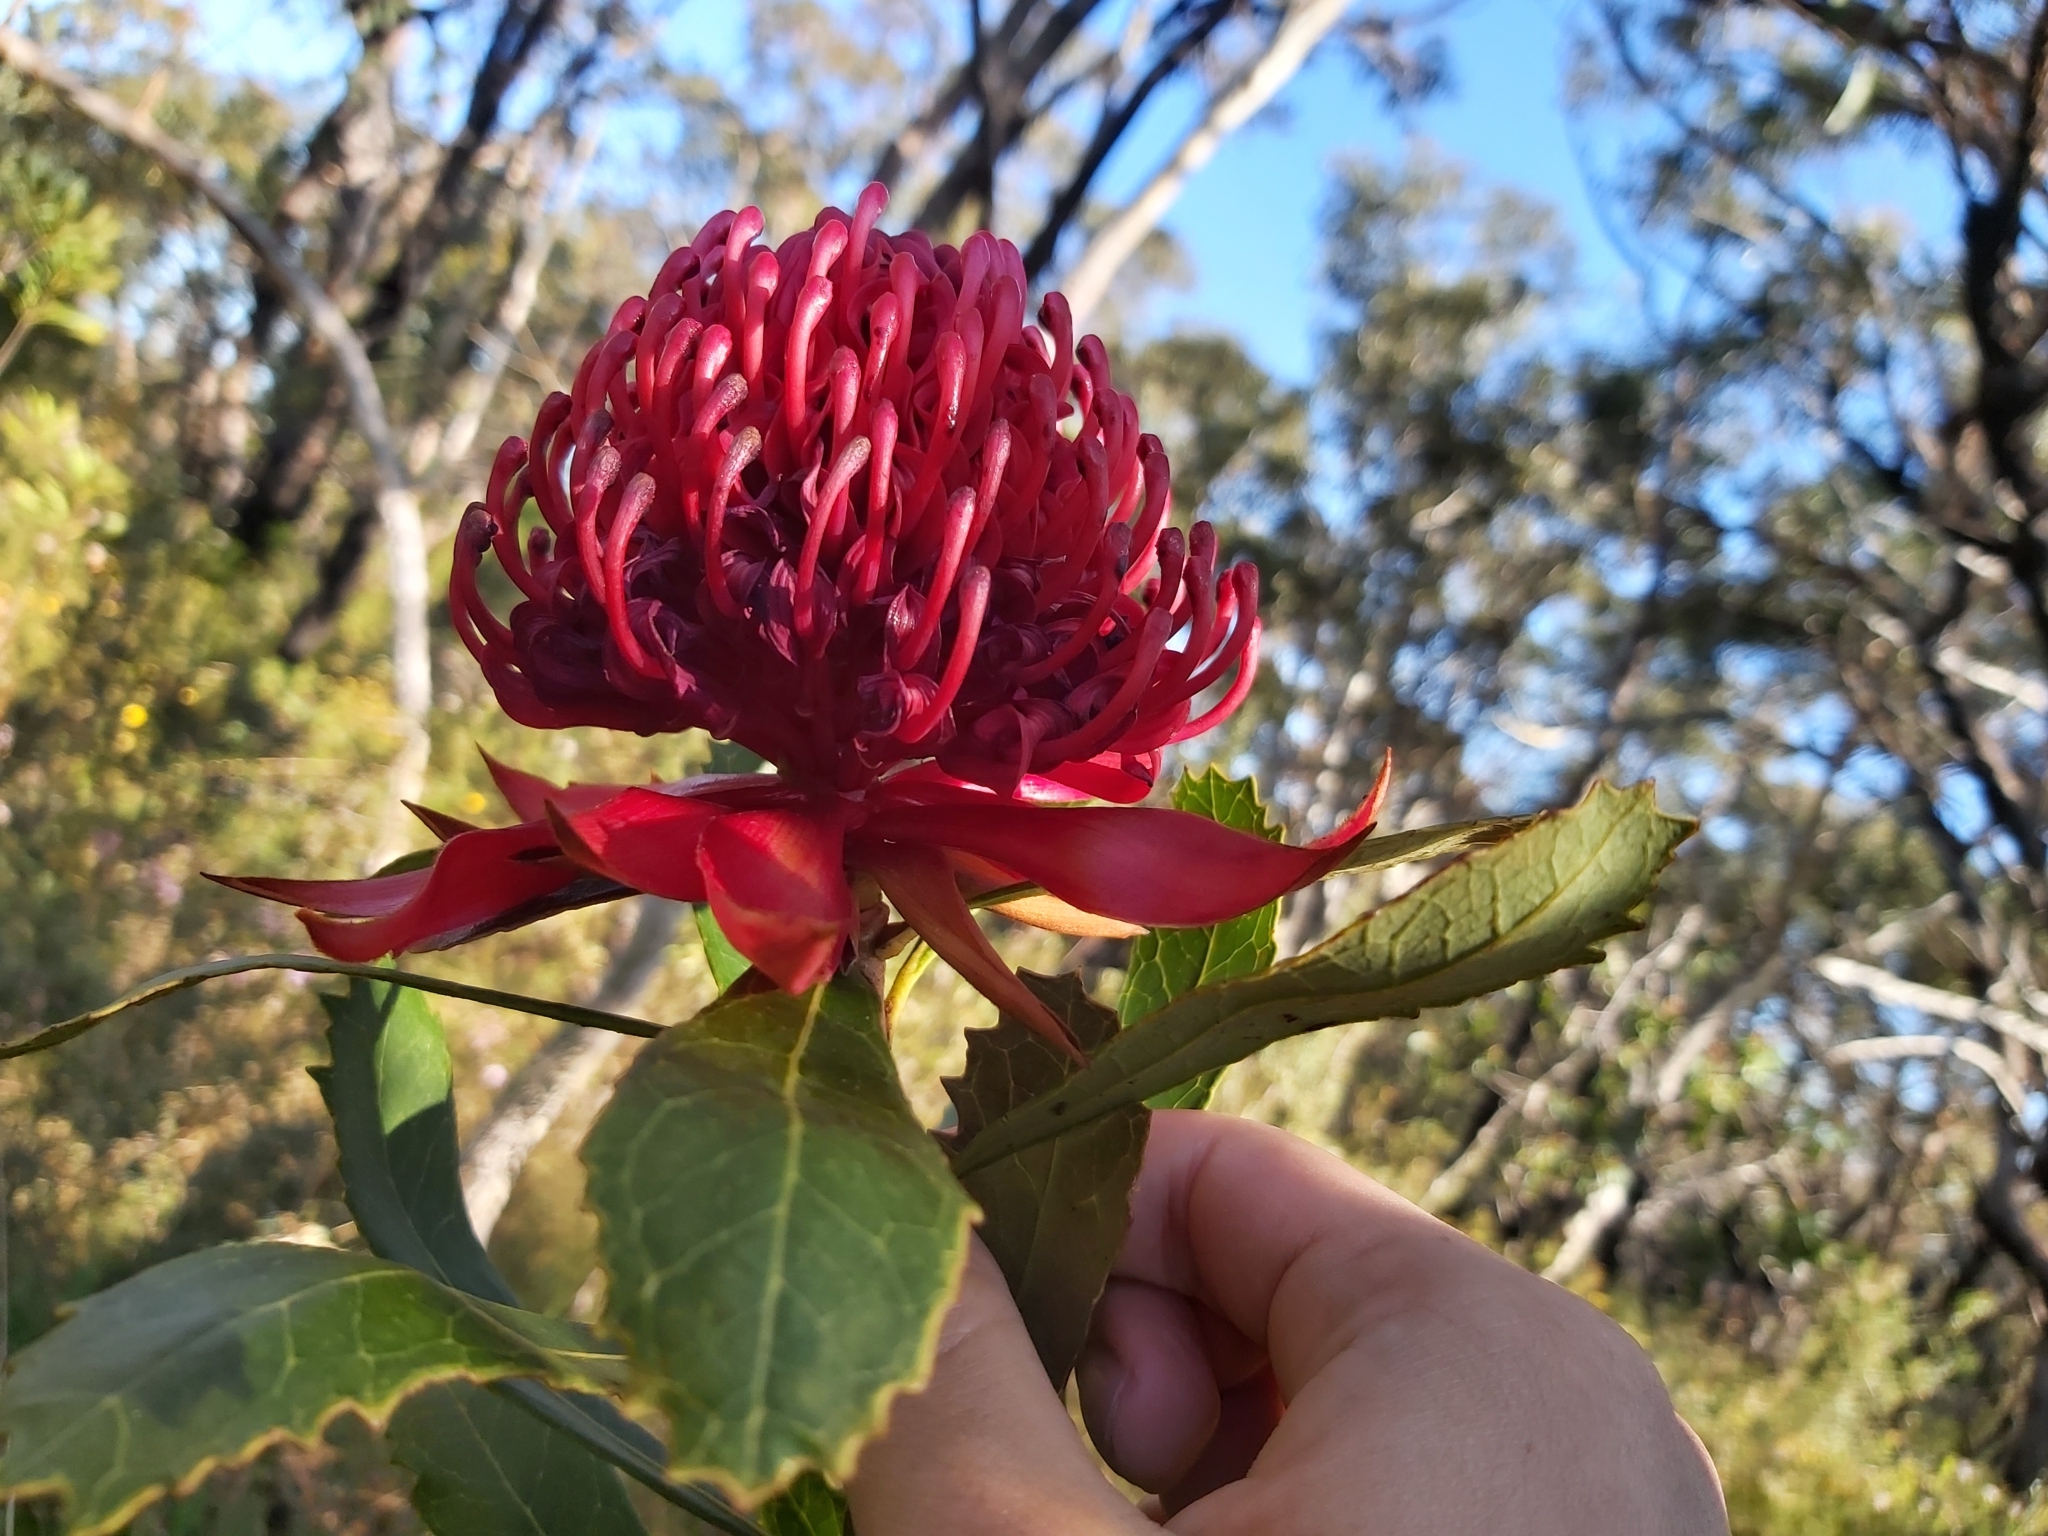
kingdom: Plantae
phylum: Tracheophyta
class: Magnoliopsida
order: Proteales
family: Proteaceae
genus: Telopea
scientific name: Telopea speciosissima
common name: New south wales waratah
